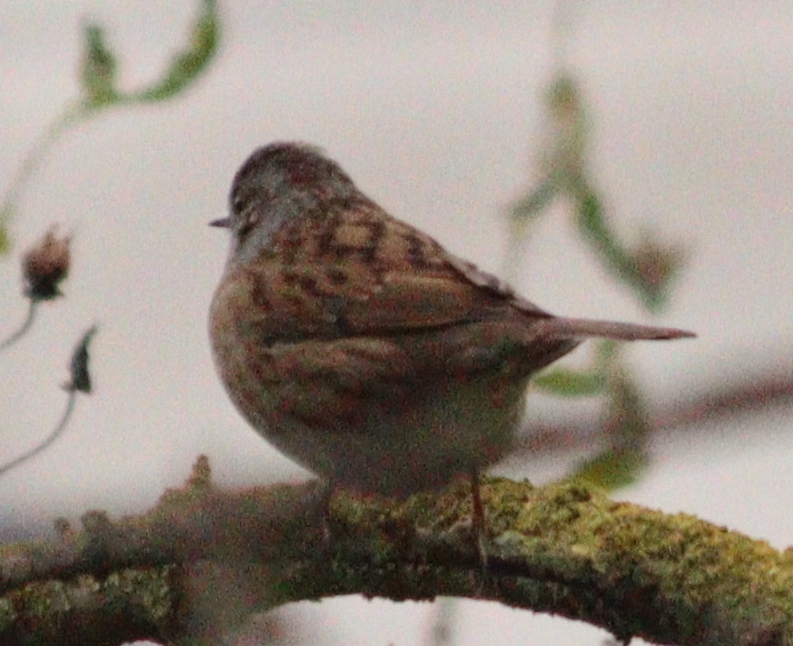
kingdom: Animalia
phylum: Chordata
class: Aves
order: Passeriformes
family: Prunellidae
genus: Prunella
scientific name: Prunella modularis
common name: Dunnock
